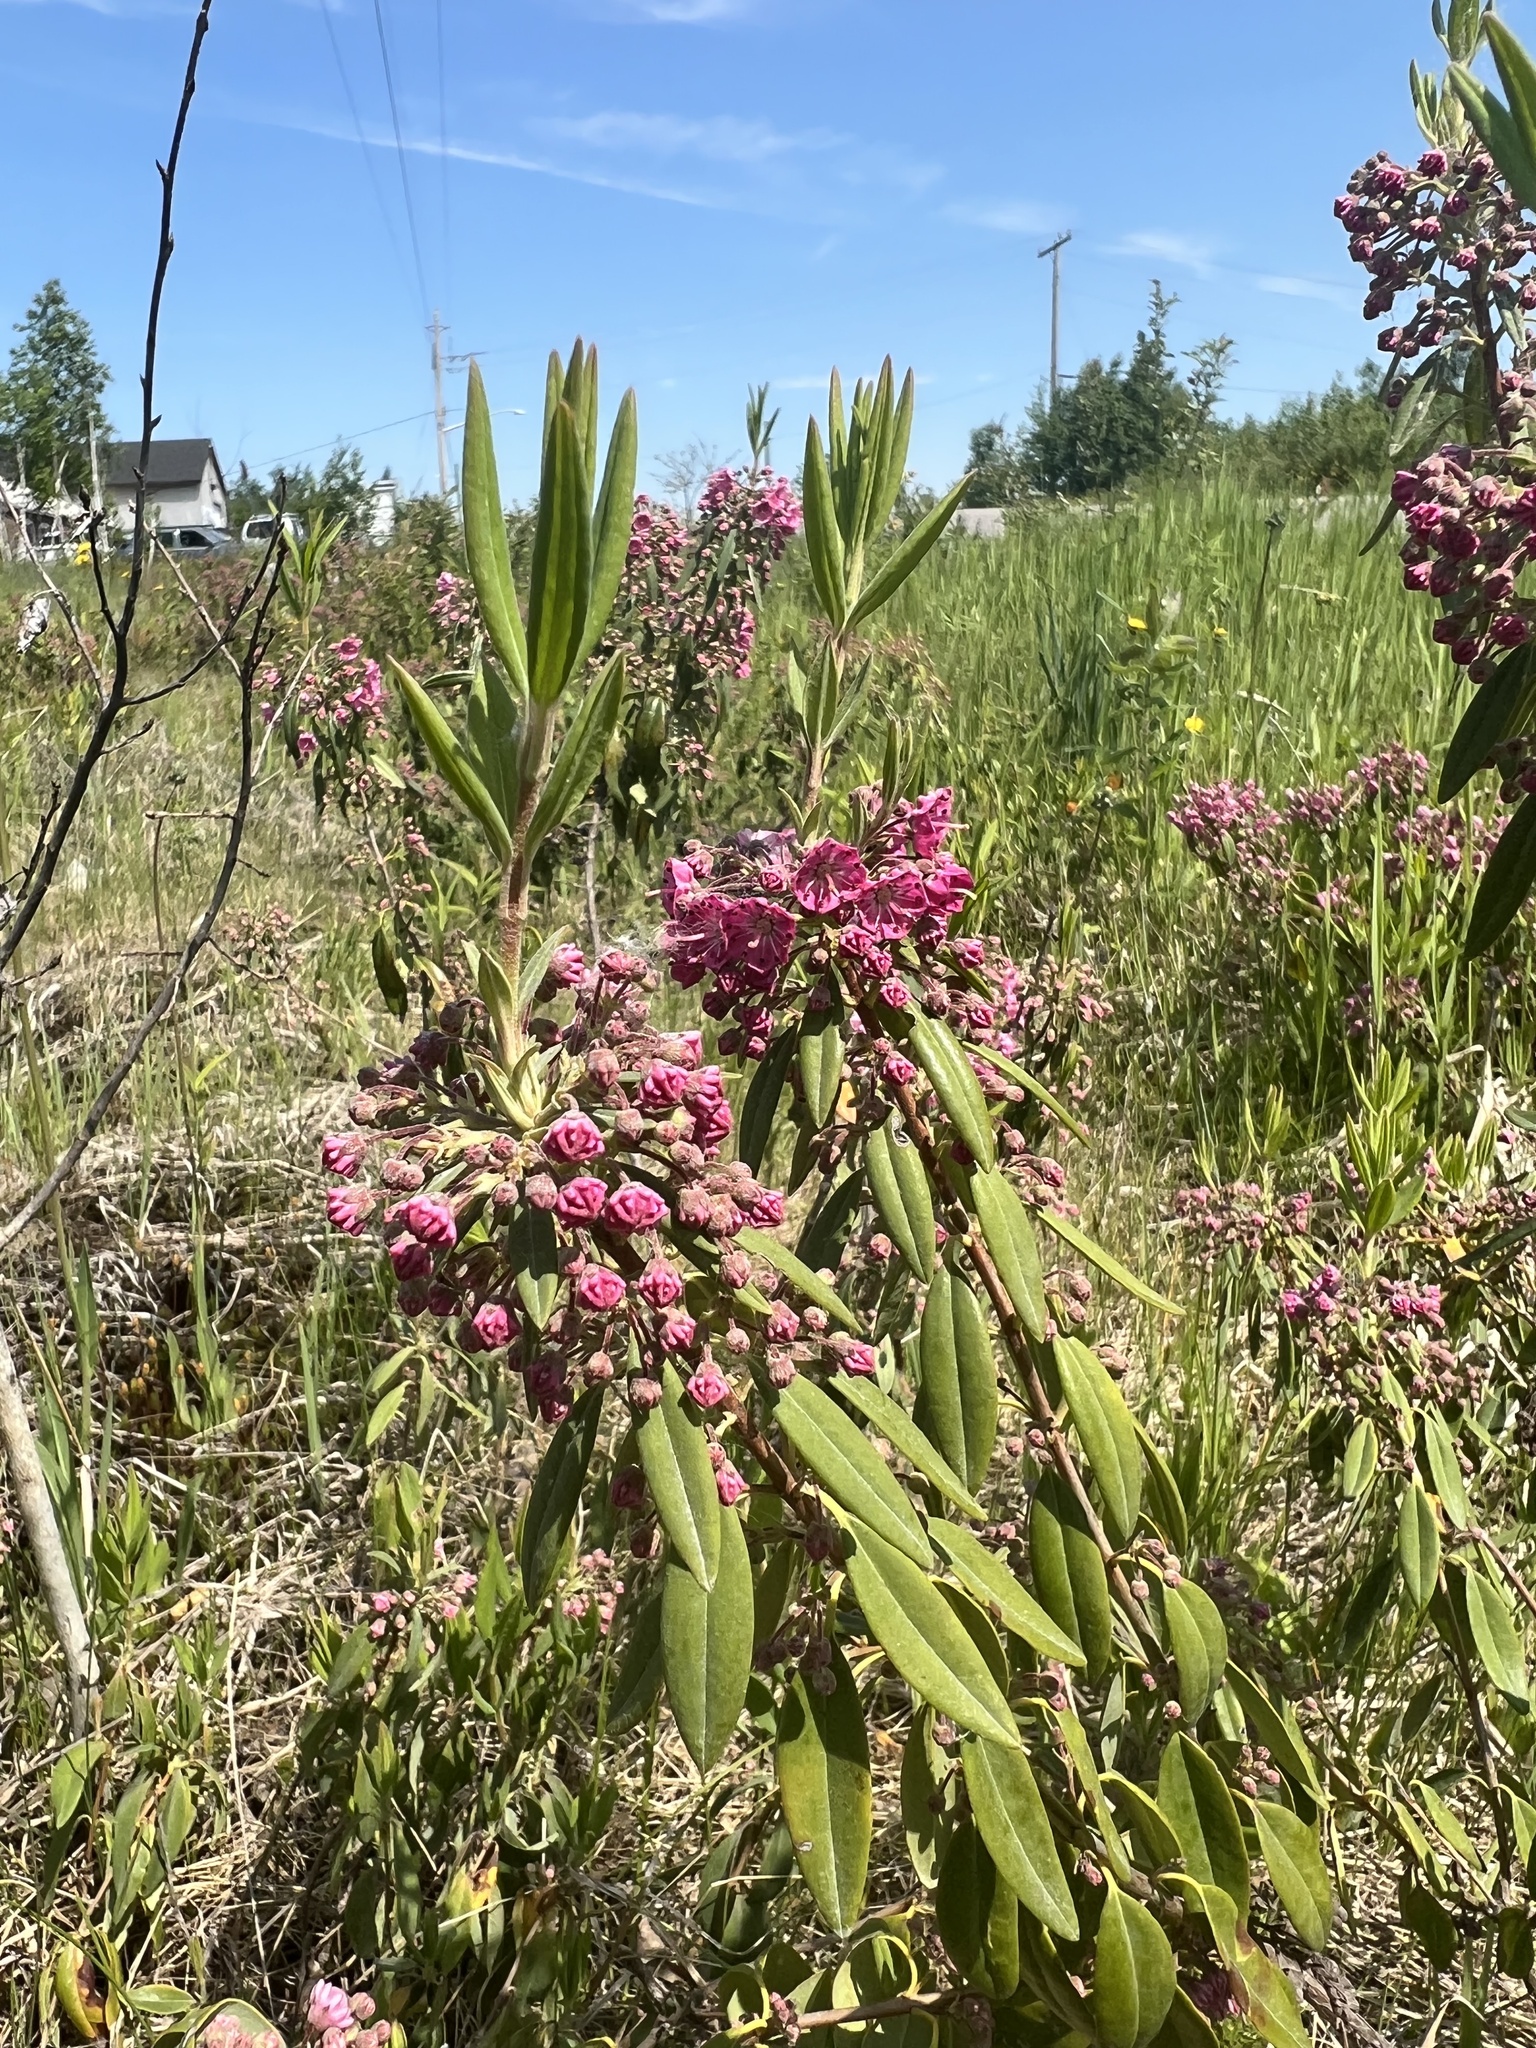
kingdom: Plantae
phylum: Tracheophyta
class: Magnoliopsida
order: Ericales
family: Ericaceae
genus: Kalmia
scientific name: Kalmia angustifolia
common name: Sheep-laurel
